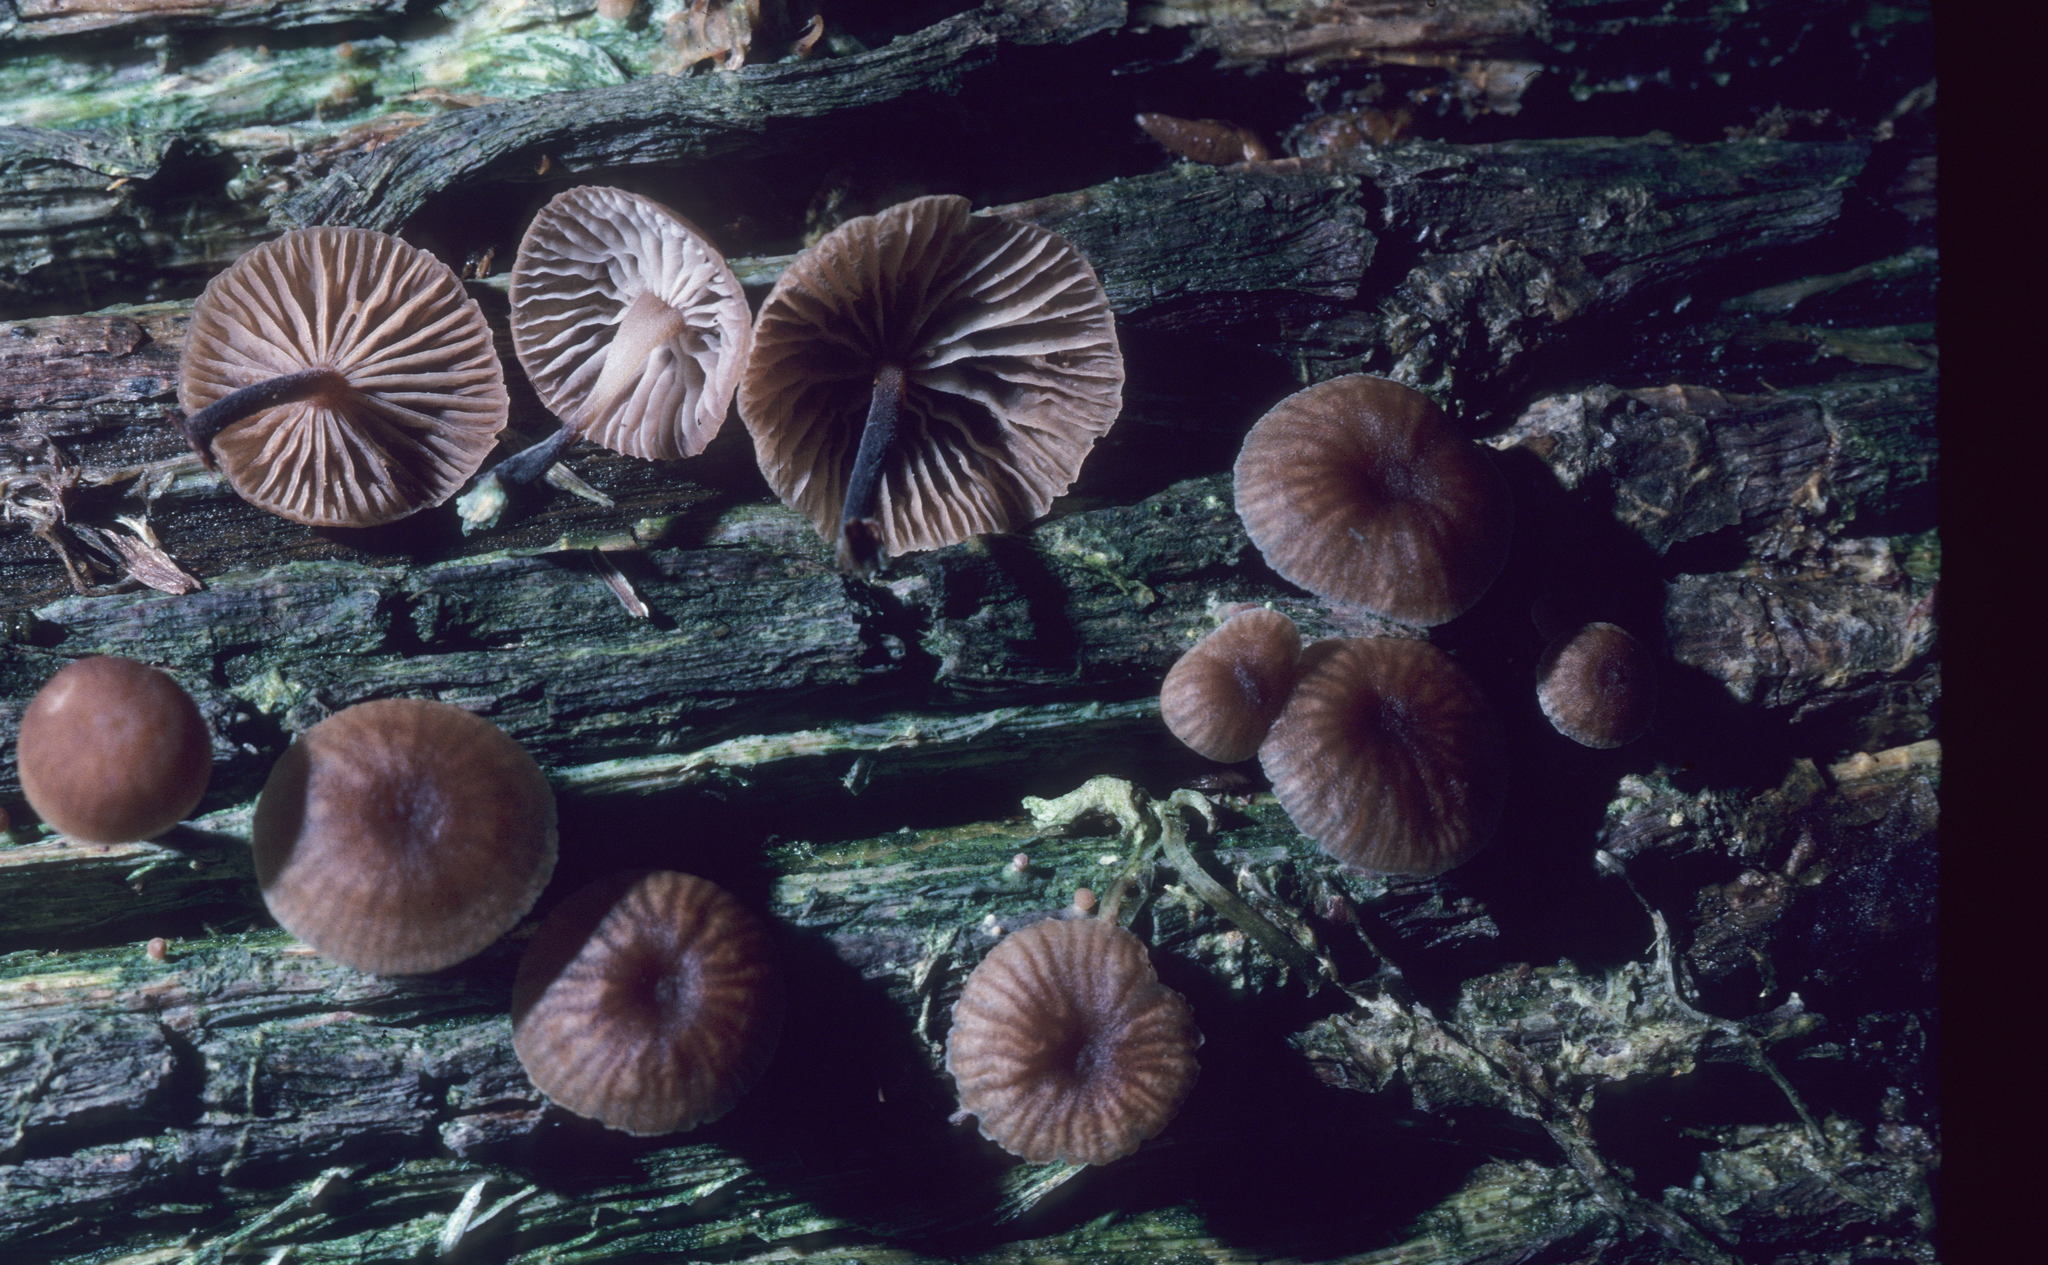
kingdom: Fungi
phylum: Basidiomycota
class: Agaricomycetes
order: Agaricales
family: Omphalotaceae
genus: Gymnopus
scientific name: Gymnopus foetidus
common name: Foetid parachute
